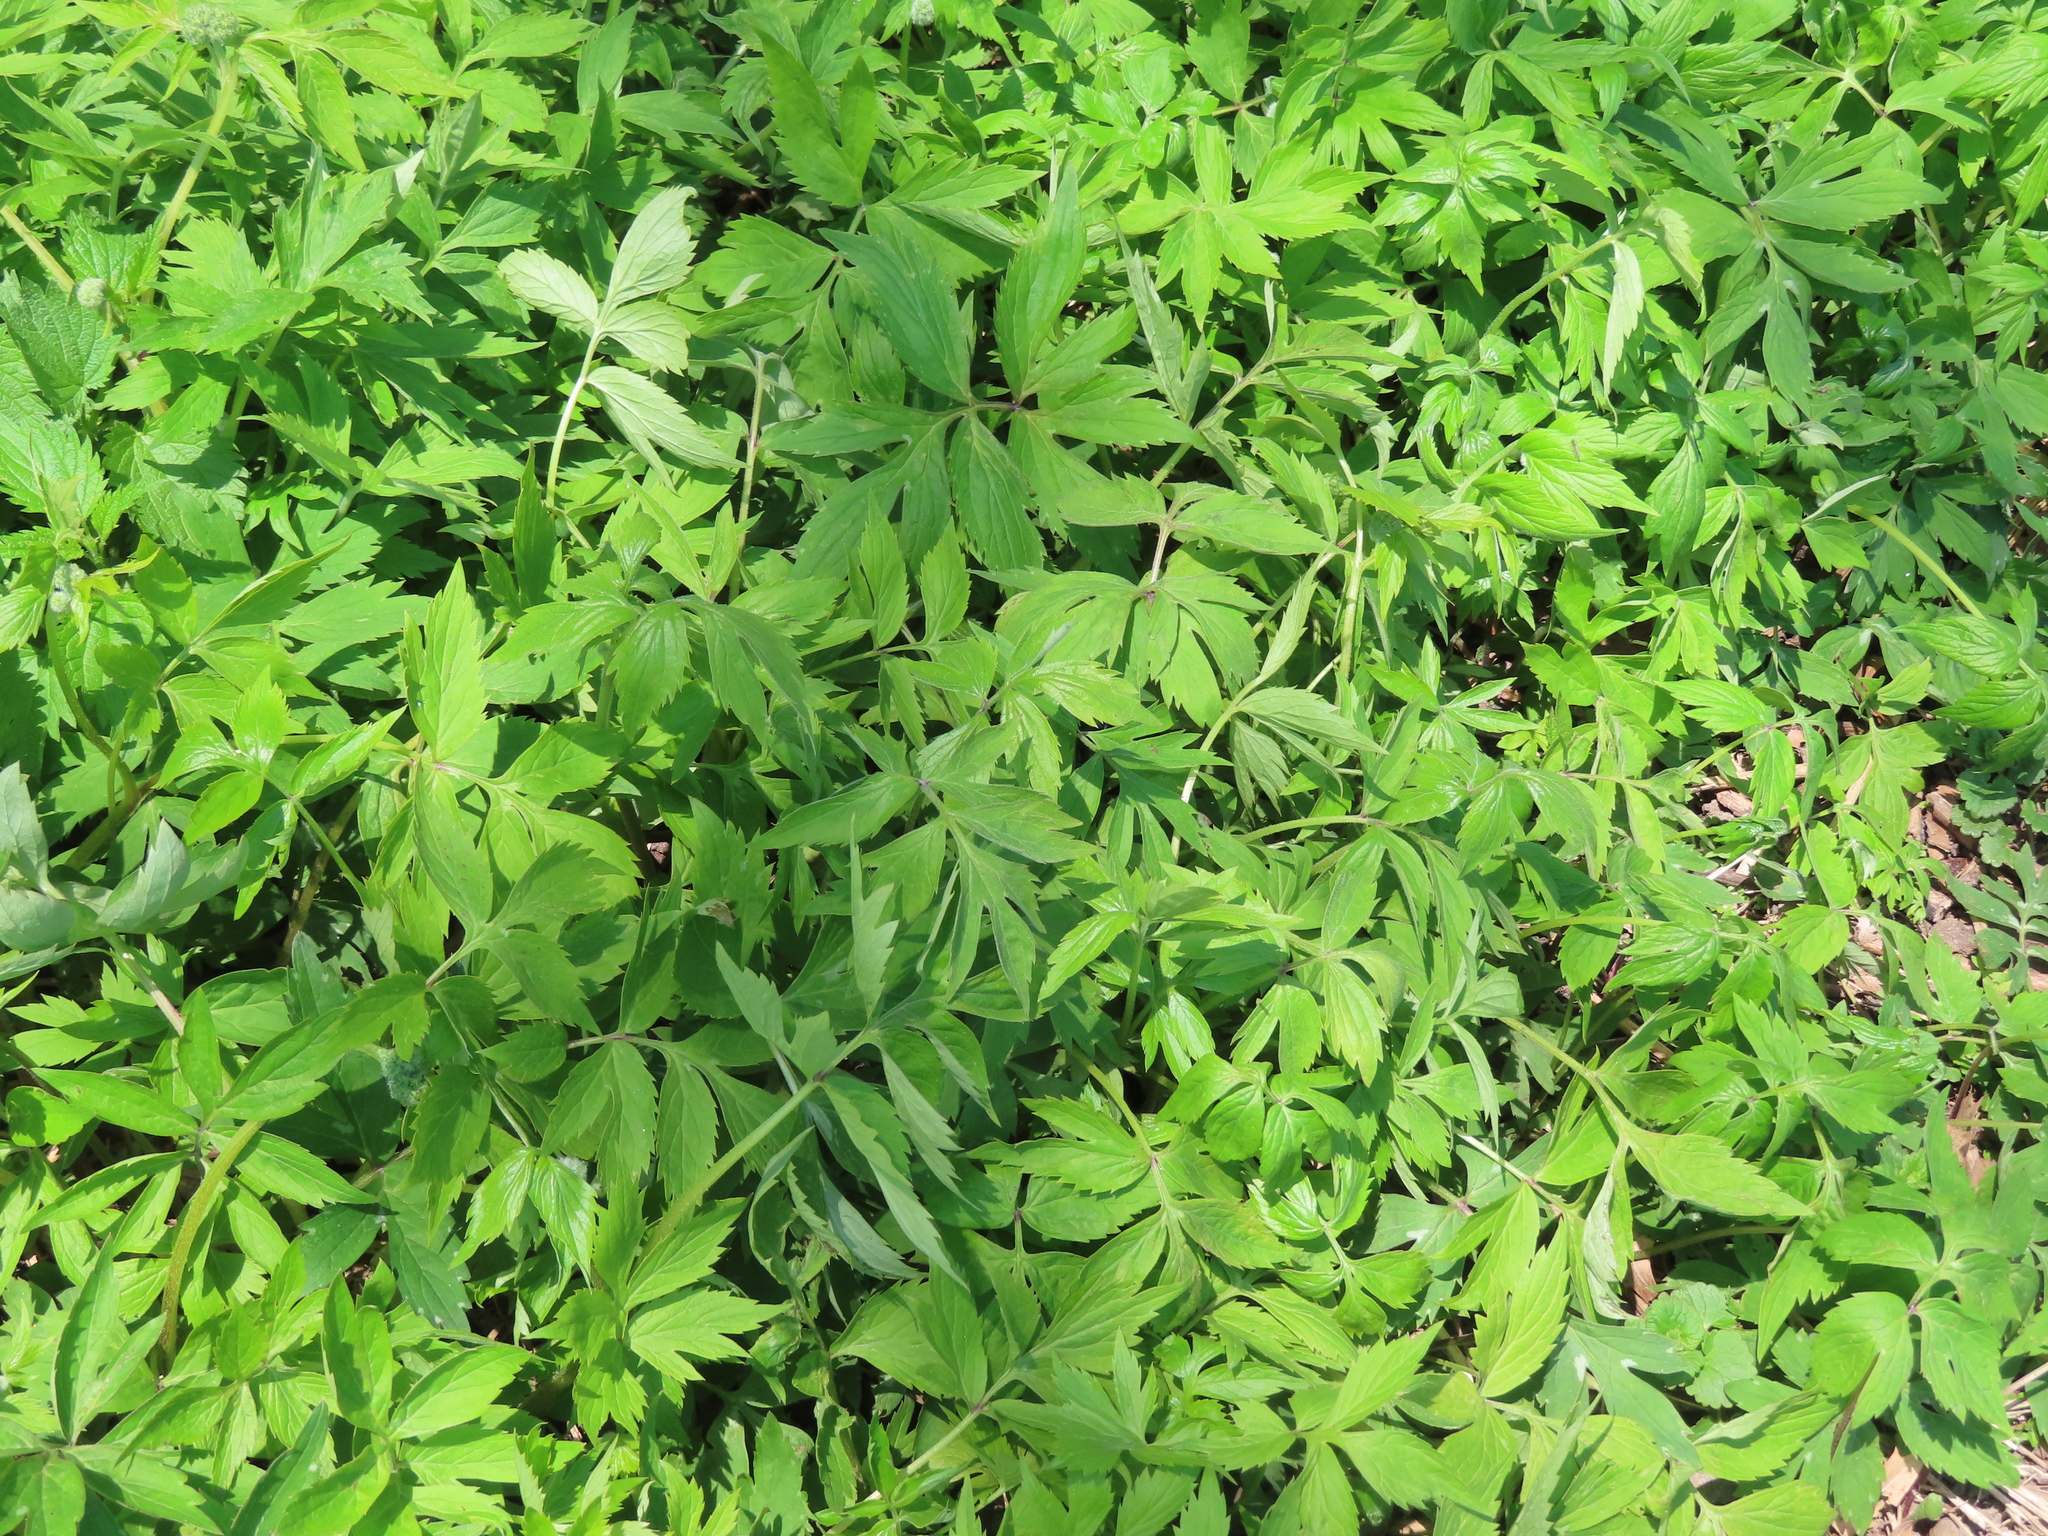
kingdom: Plantae
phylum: Tracheophyta
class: Magnoliopsida
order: Boraginales
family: Hydrophyllaceae
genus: Hydrophyllum
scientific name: Hydrophyllum virginianum
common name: Virginia waterleaf
